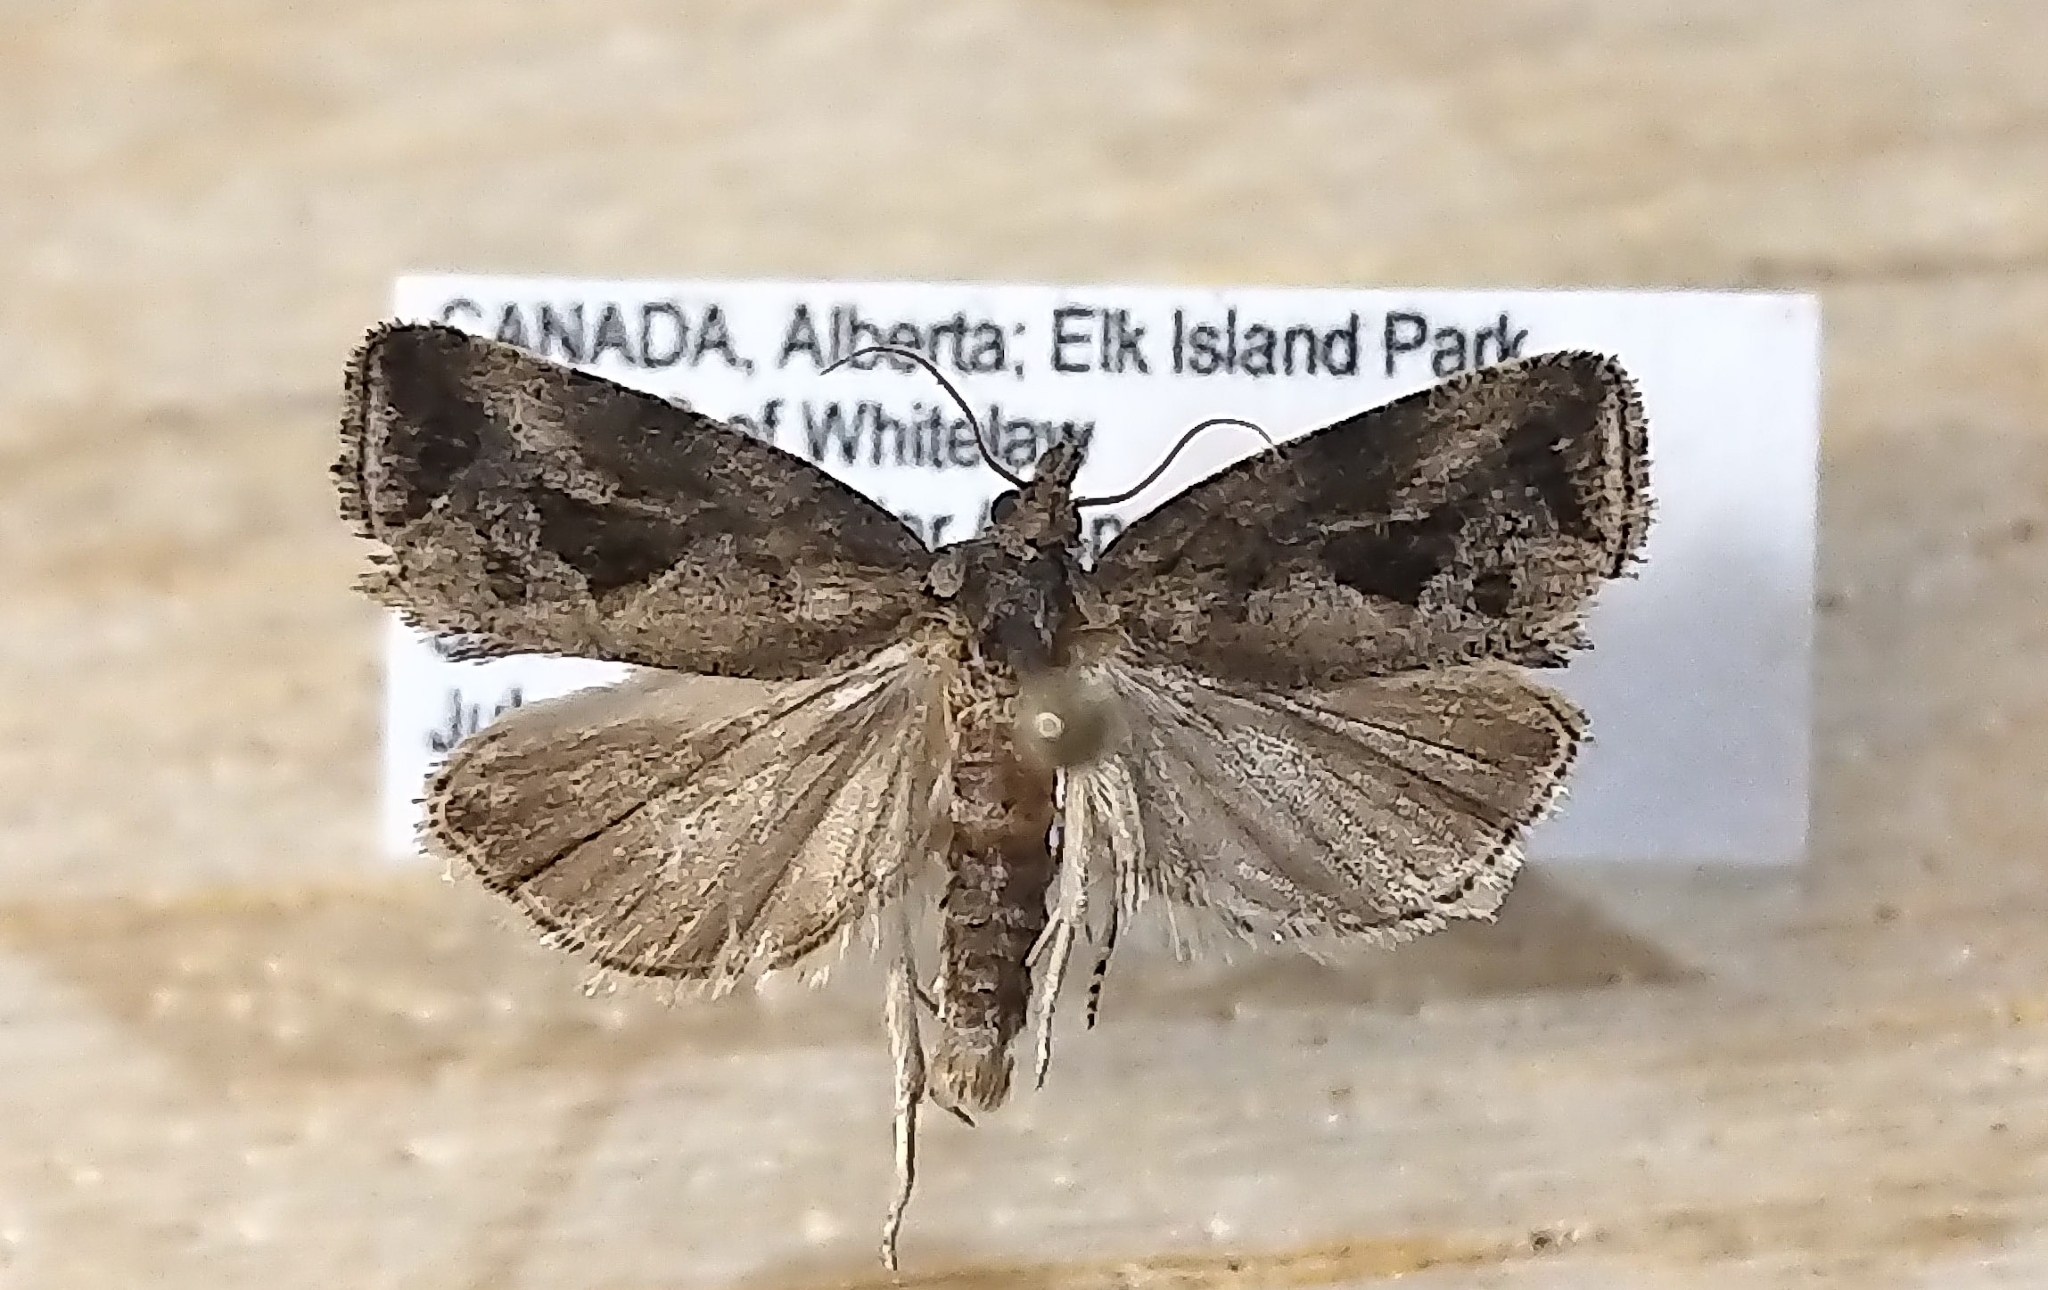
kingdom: Animalia
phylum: Arthropoda
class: Insecta
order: Lepidoptera
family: Tortricidae
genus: Endothenia
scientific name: Endothenia nubilana
